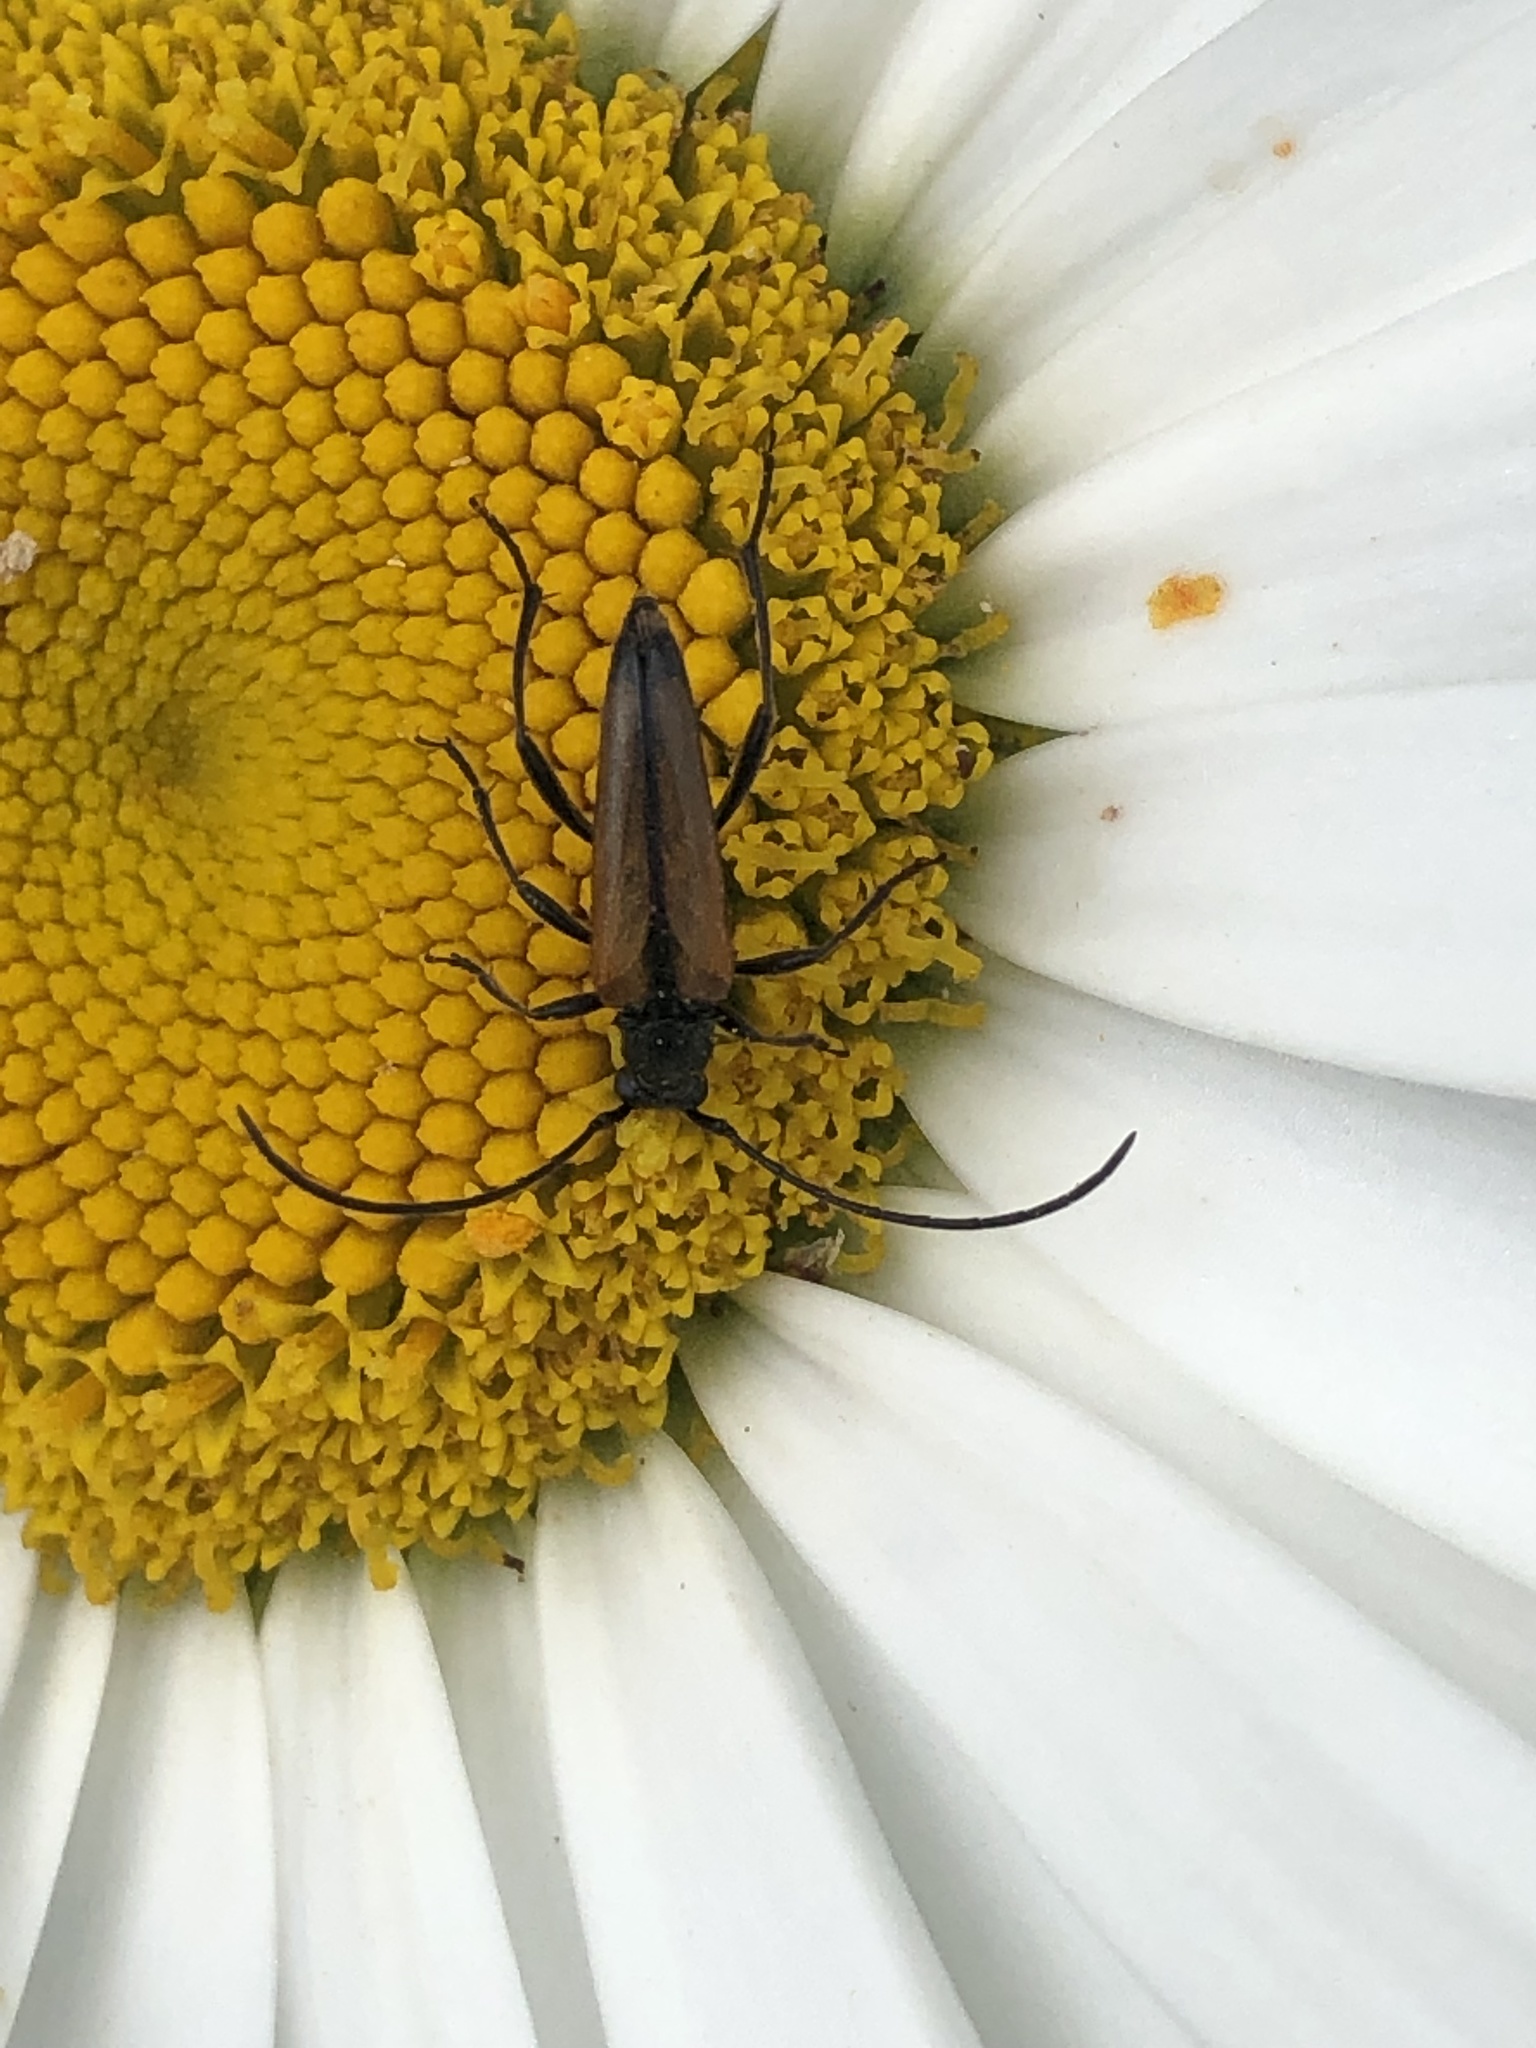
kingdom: Animalia
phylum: Arthropoda
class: Insecta
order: Coleoptera
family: Cerambycidae
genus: Stenurella
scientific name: Stenurella melanura
